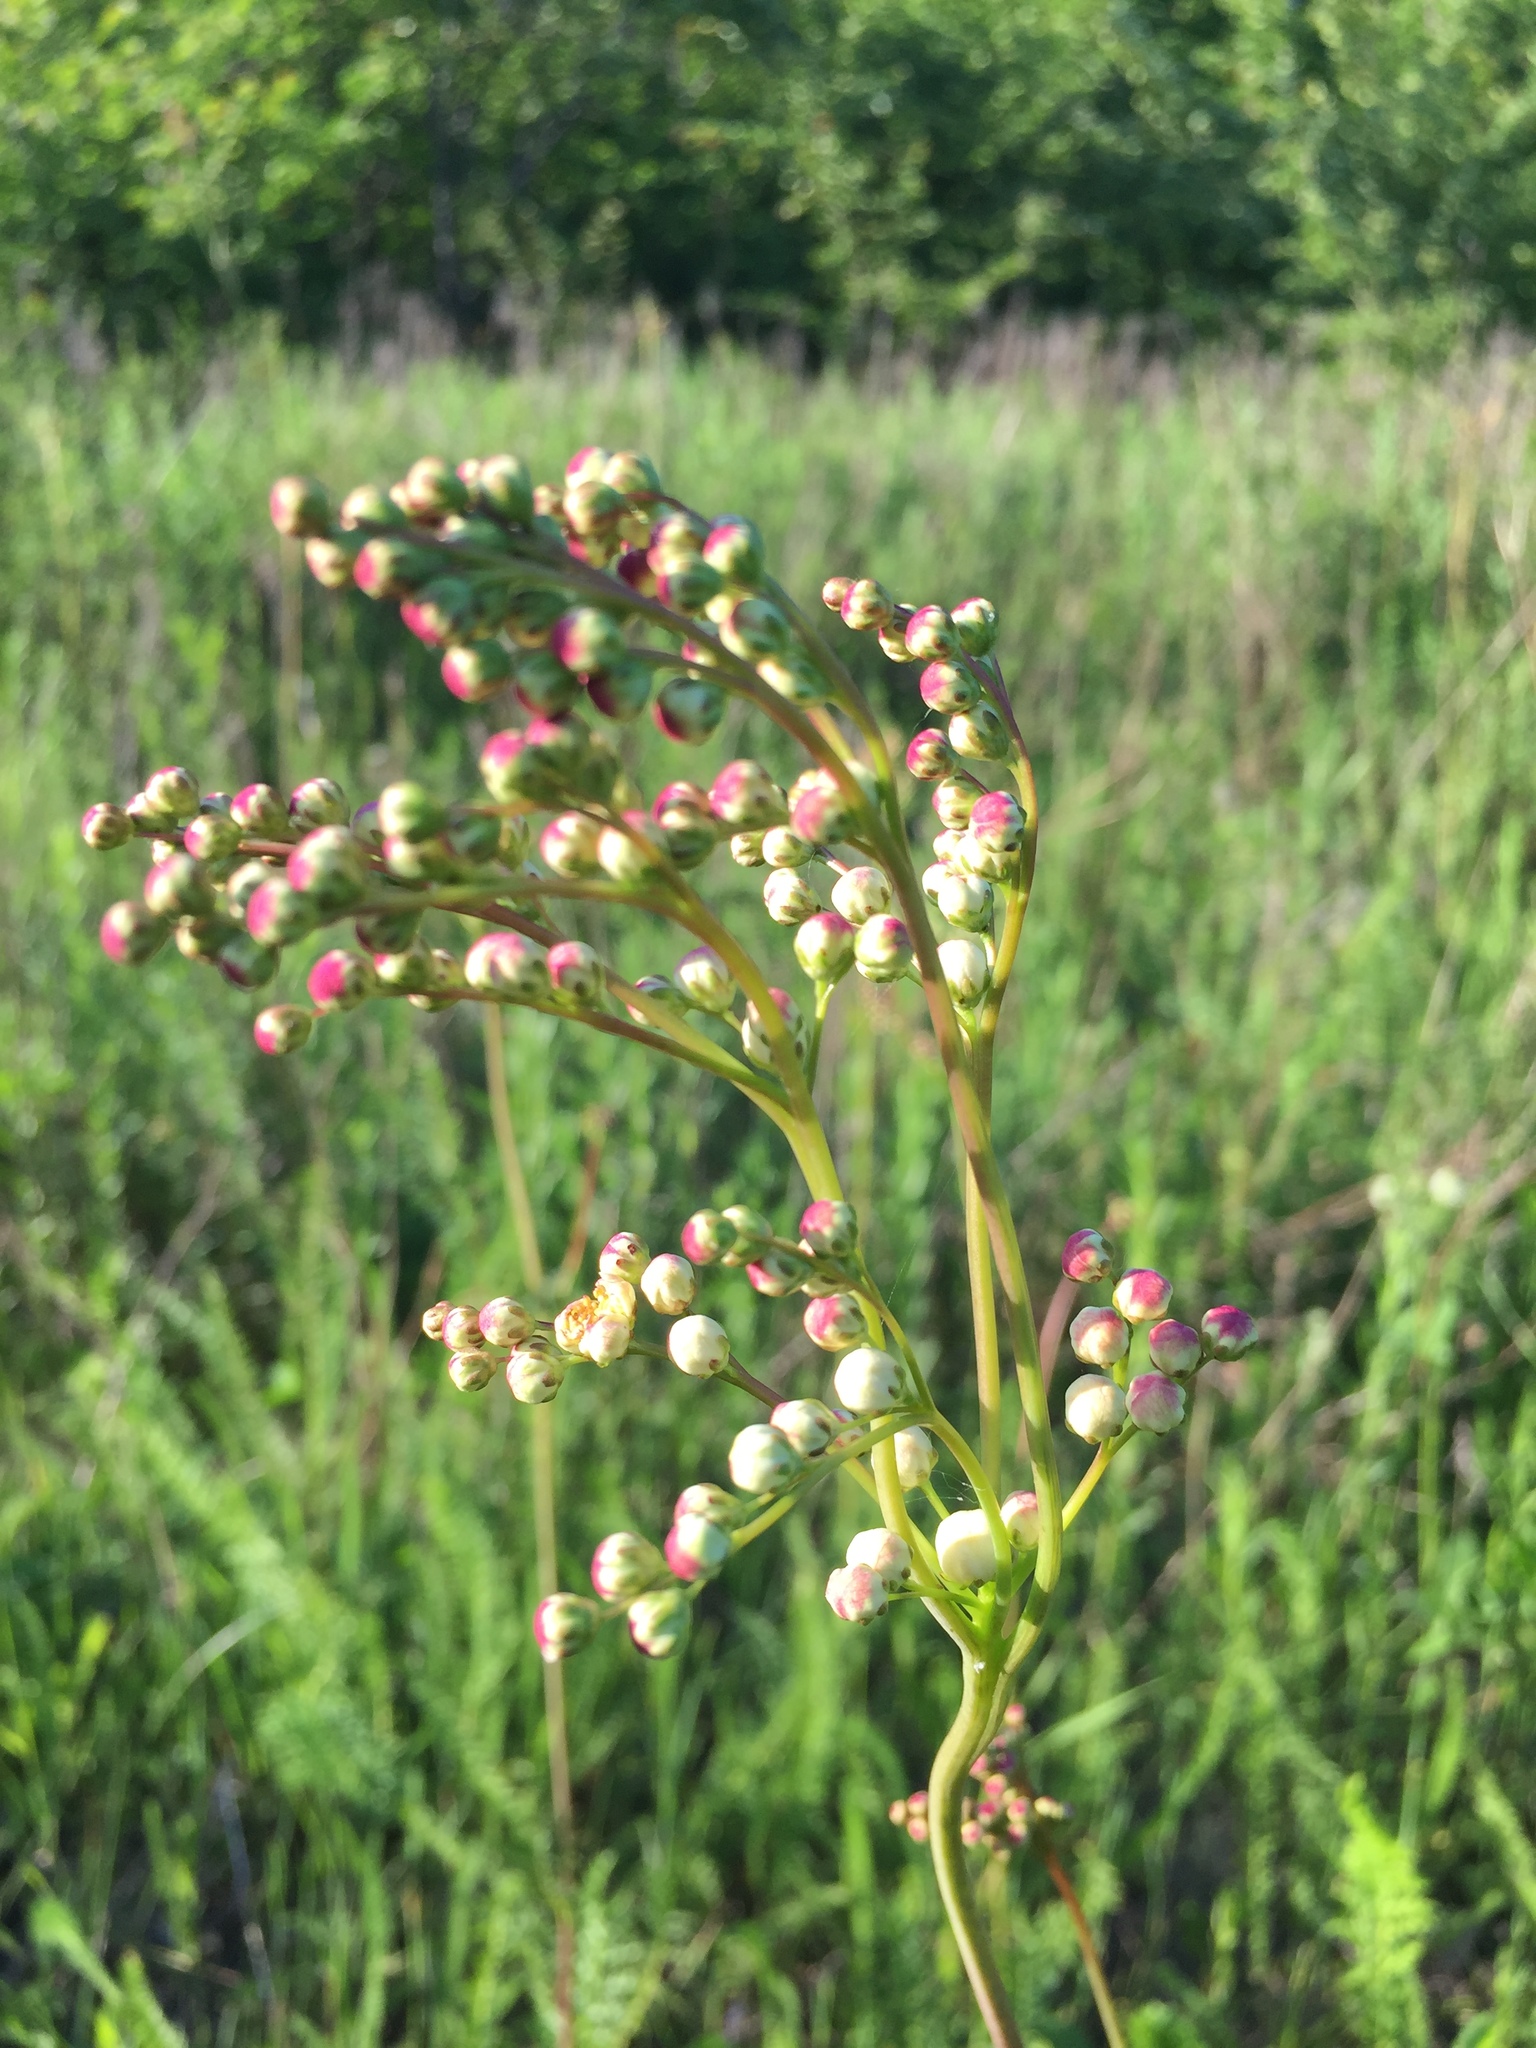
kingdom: Plantae
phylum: Tracheophyta
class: Magnoliopsida
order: Rosales
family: Rosaceae
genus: Filipendula
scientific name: Filipendula vulgaris
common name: Dropwort
